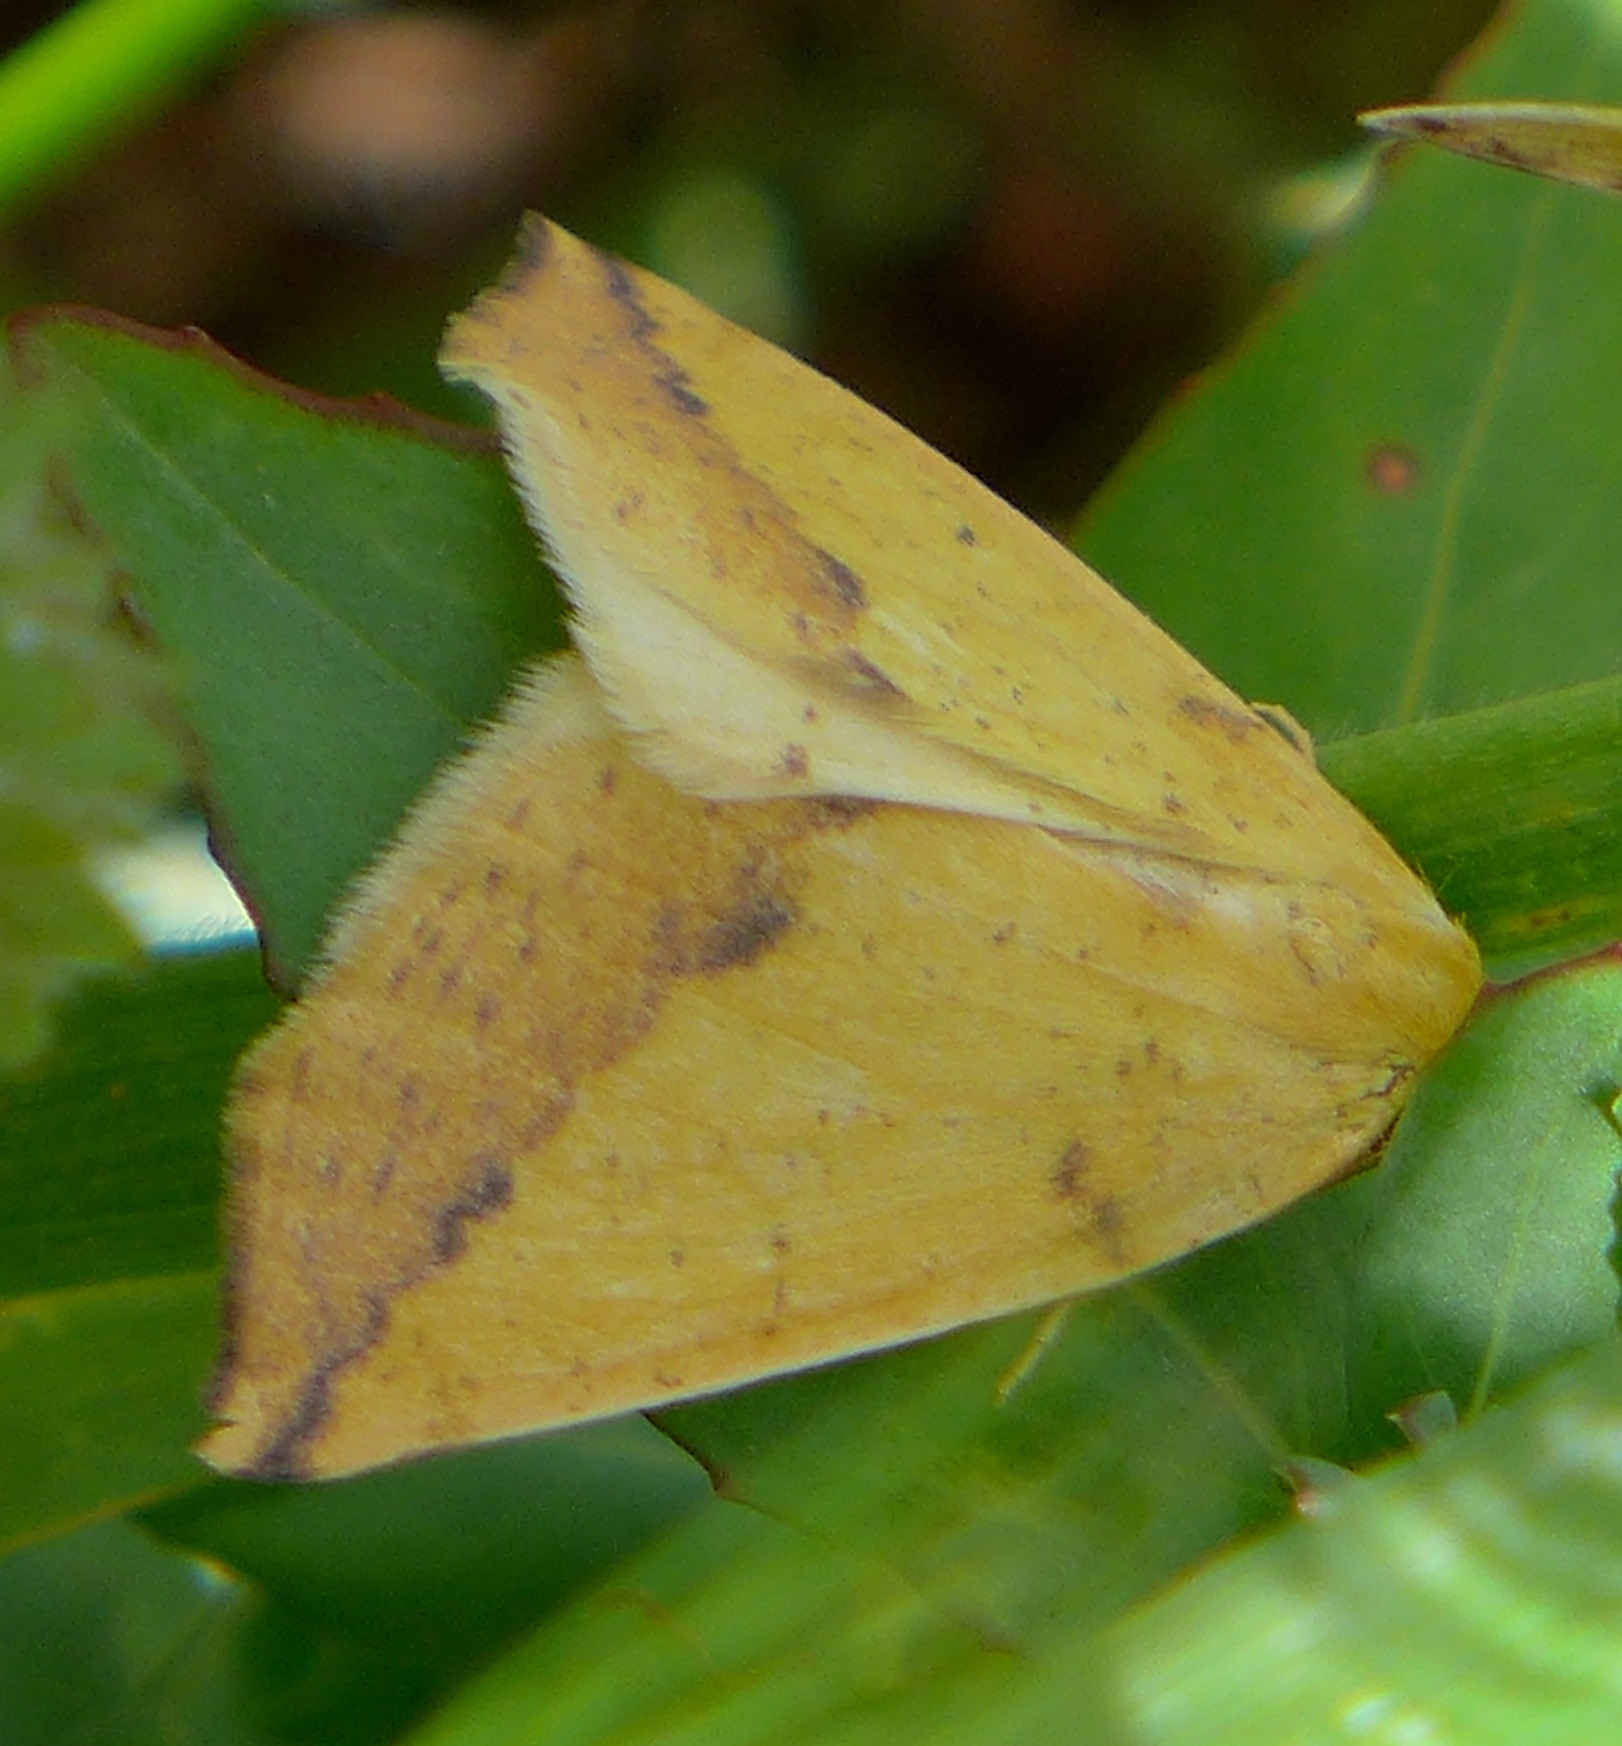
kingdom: Animalia
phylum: Arthropoda
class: Insecta
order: Lepidoptera
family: Geometridae
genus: Neoterpes
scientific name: Neoterpes edwardsata
